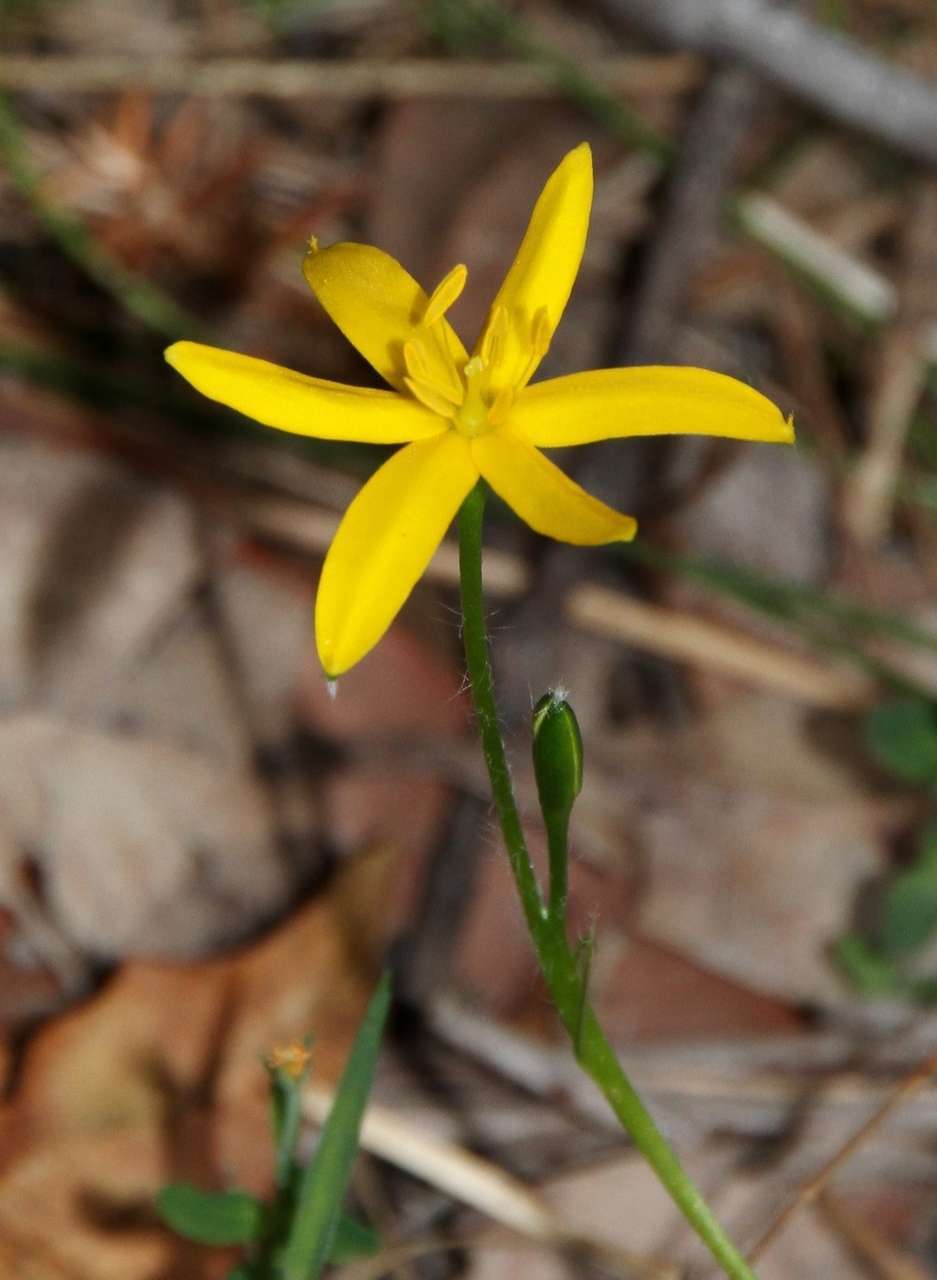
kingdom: Plantae
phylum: Tracheophyta
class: Liliopsida
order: Asparagales
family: Hypoxidaceae
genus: Hypoxis
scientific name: Hypoxis hygrometrica
